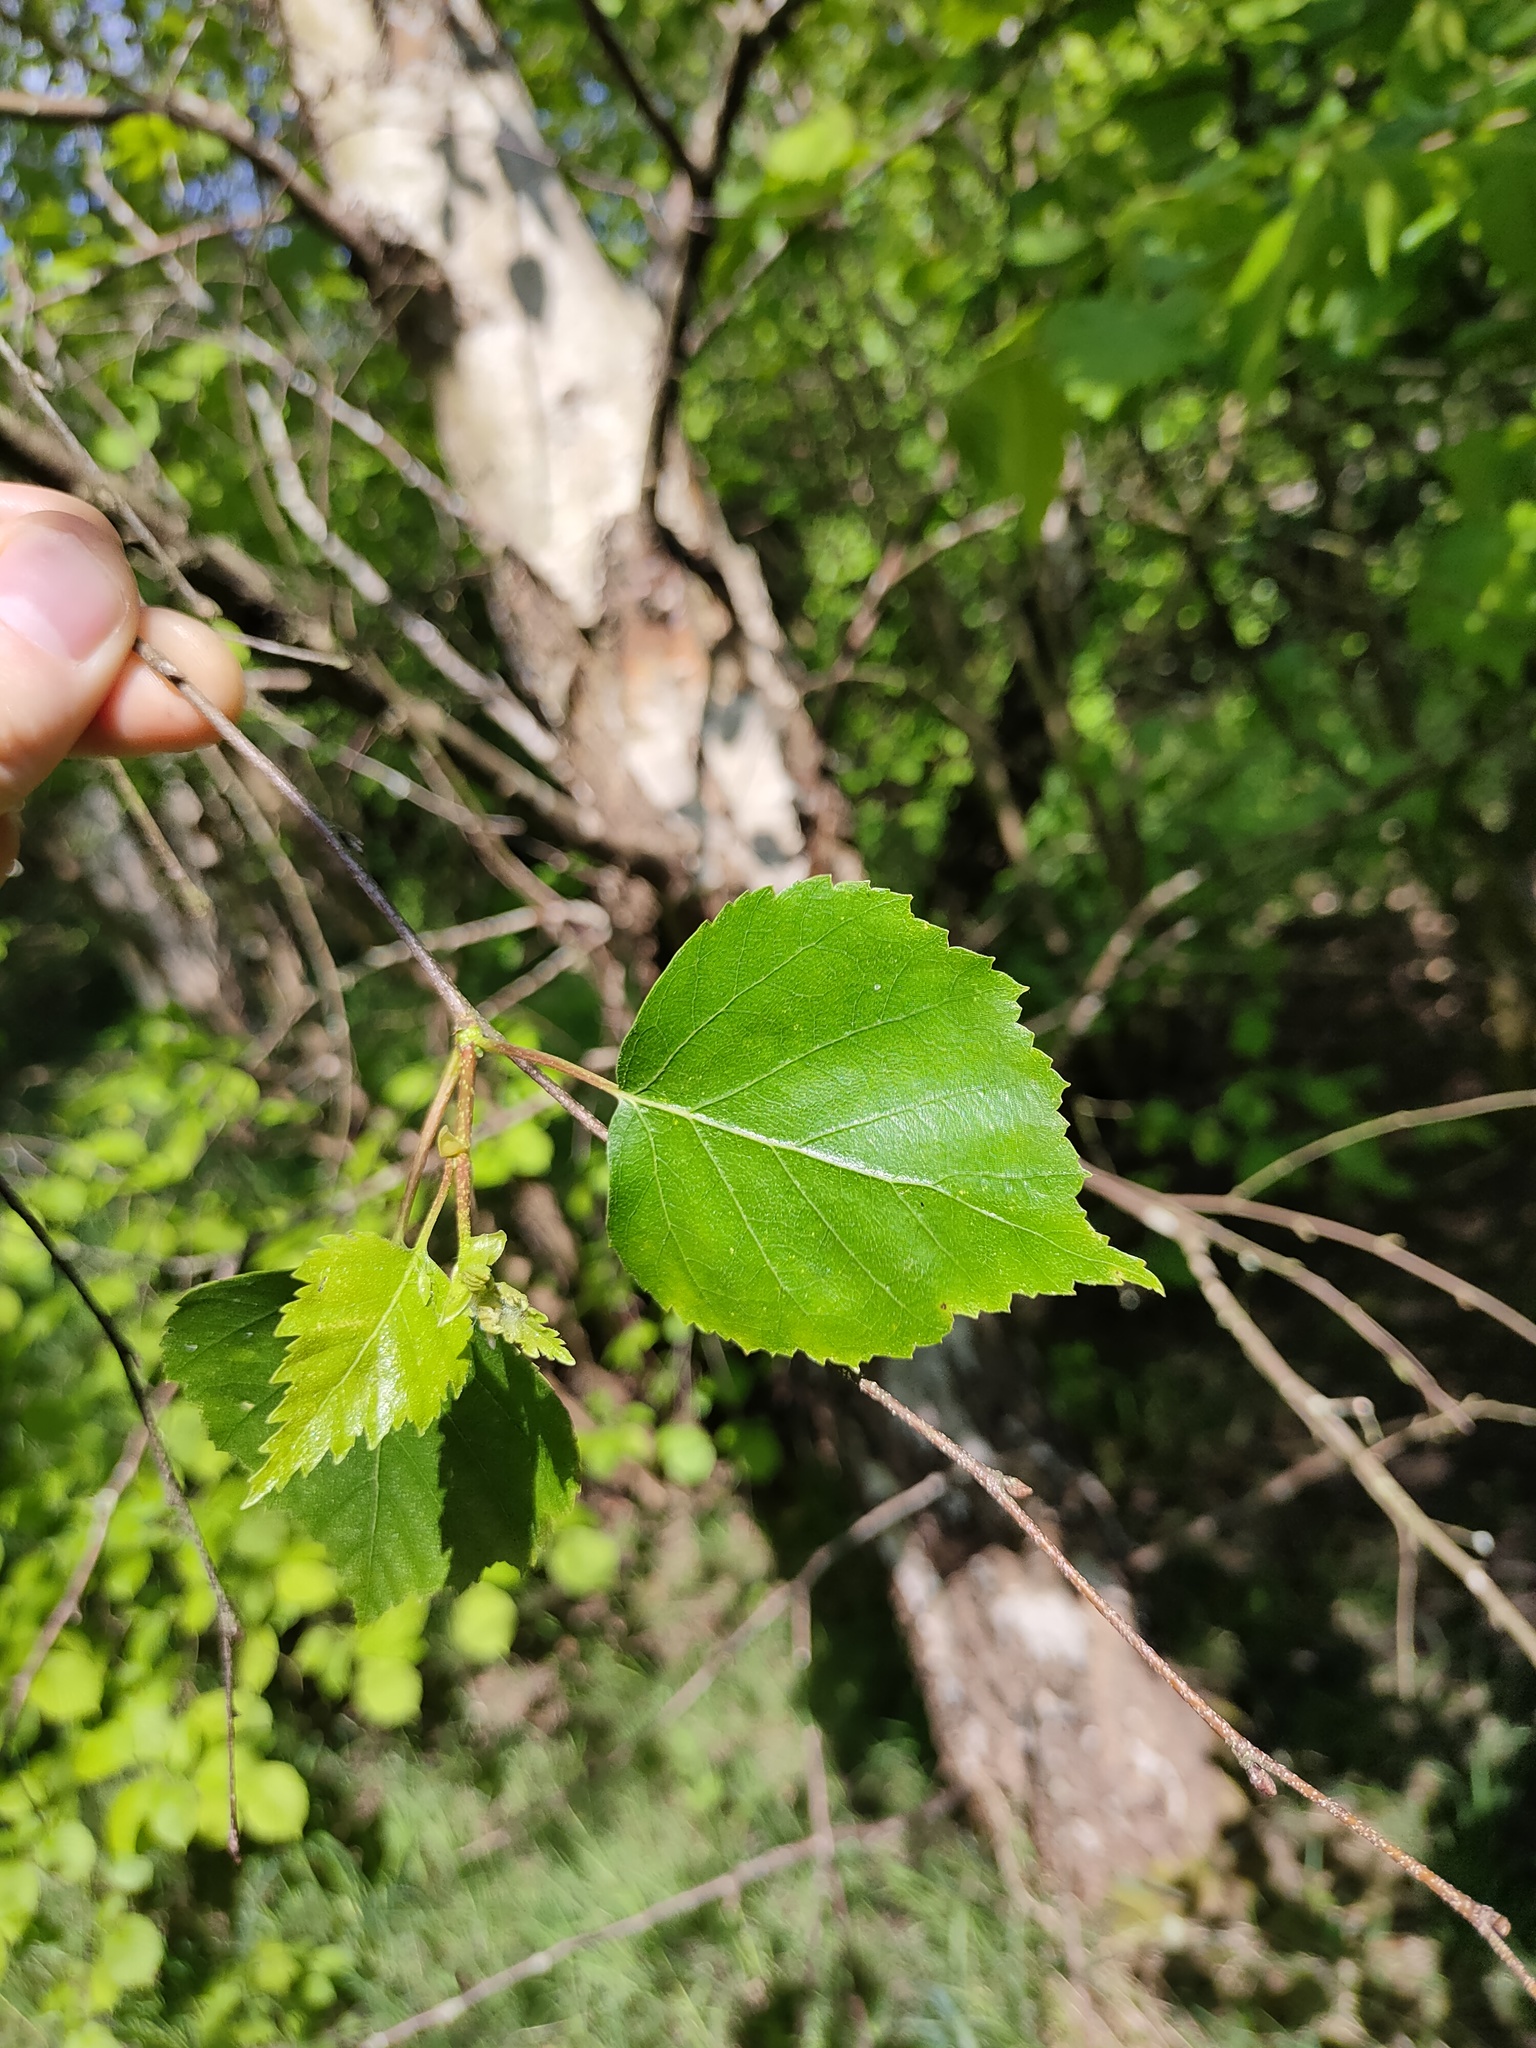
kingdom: Plantae
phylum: Tracheophyta
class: Magnoliopsida
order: Fagales
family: Betulaceae
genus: Betula
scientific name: Betula pendula
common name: Silver birch
